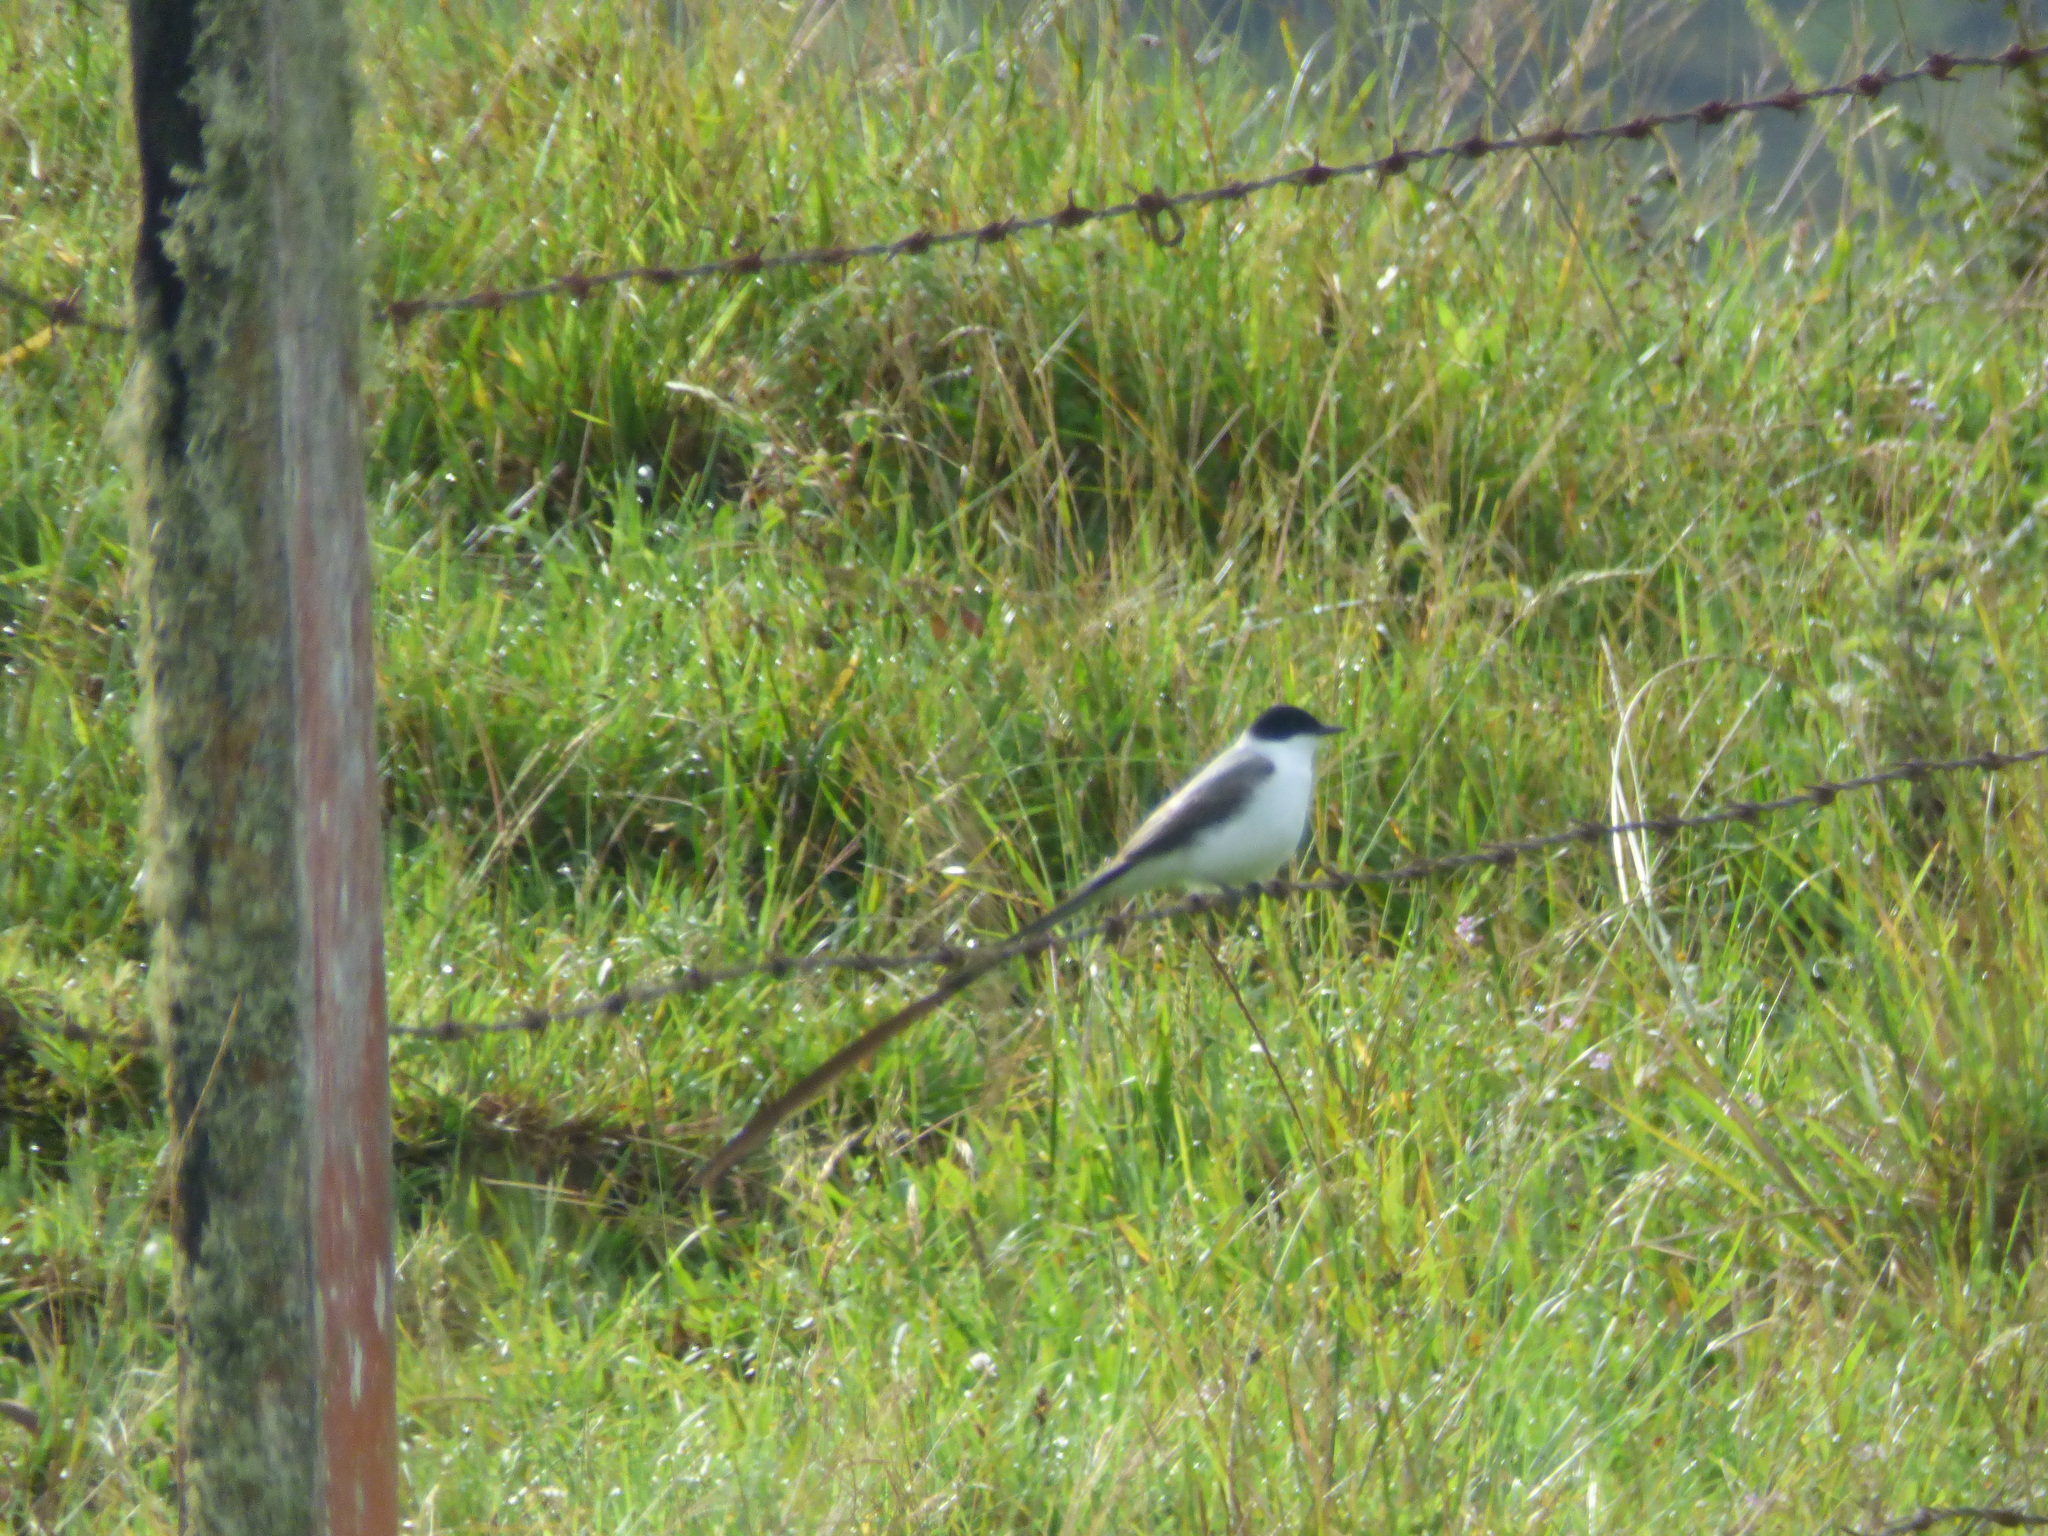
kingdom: Animalia
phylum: Chordata
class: Aves
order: Passeriformes
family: Tyrannidae
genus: Tyrannus
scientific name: Tyrannus savana
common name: Fork-tailed flycatcher
